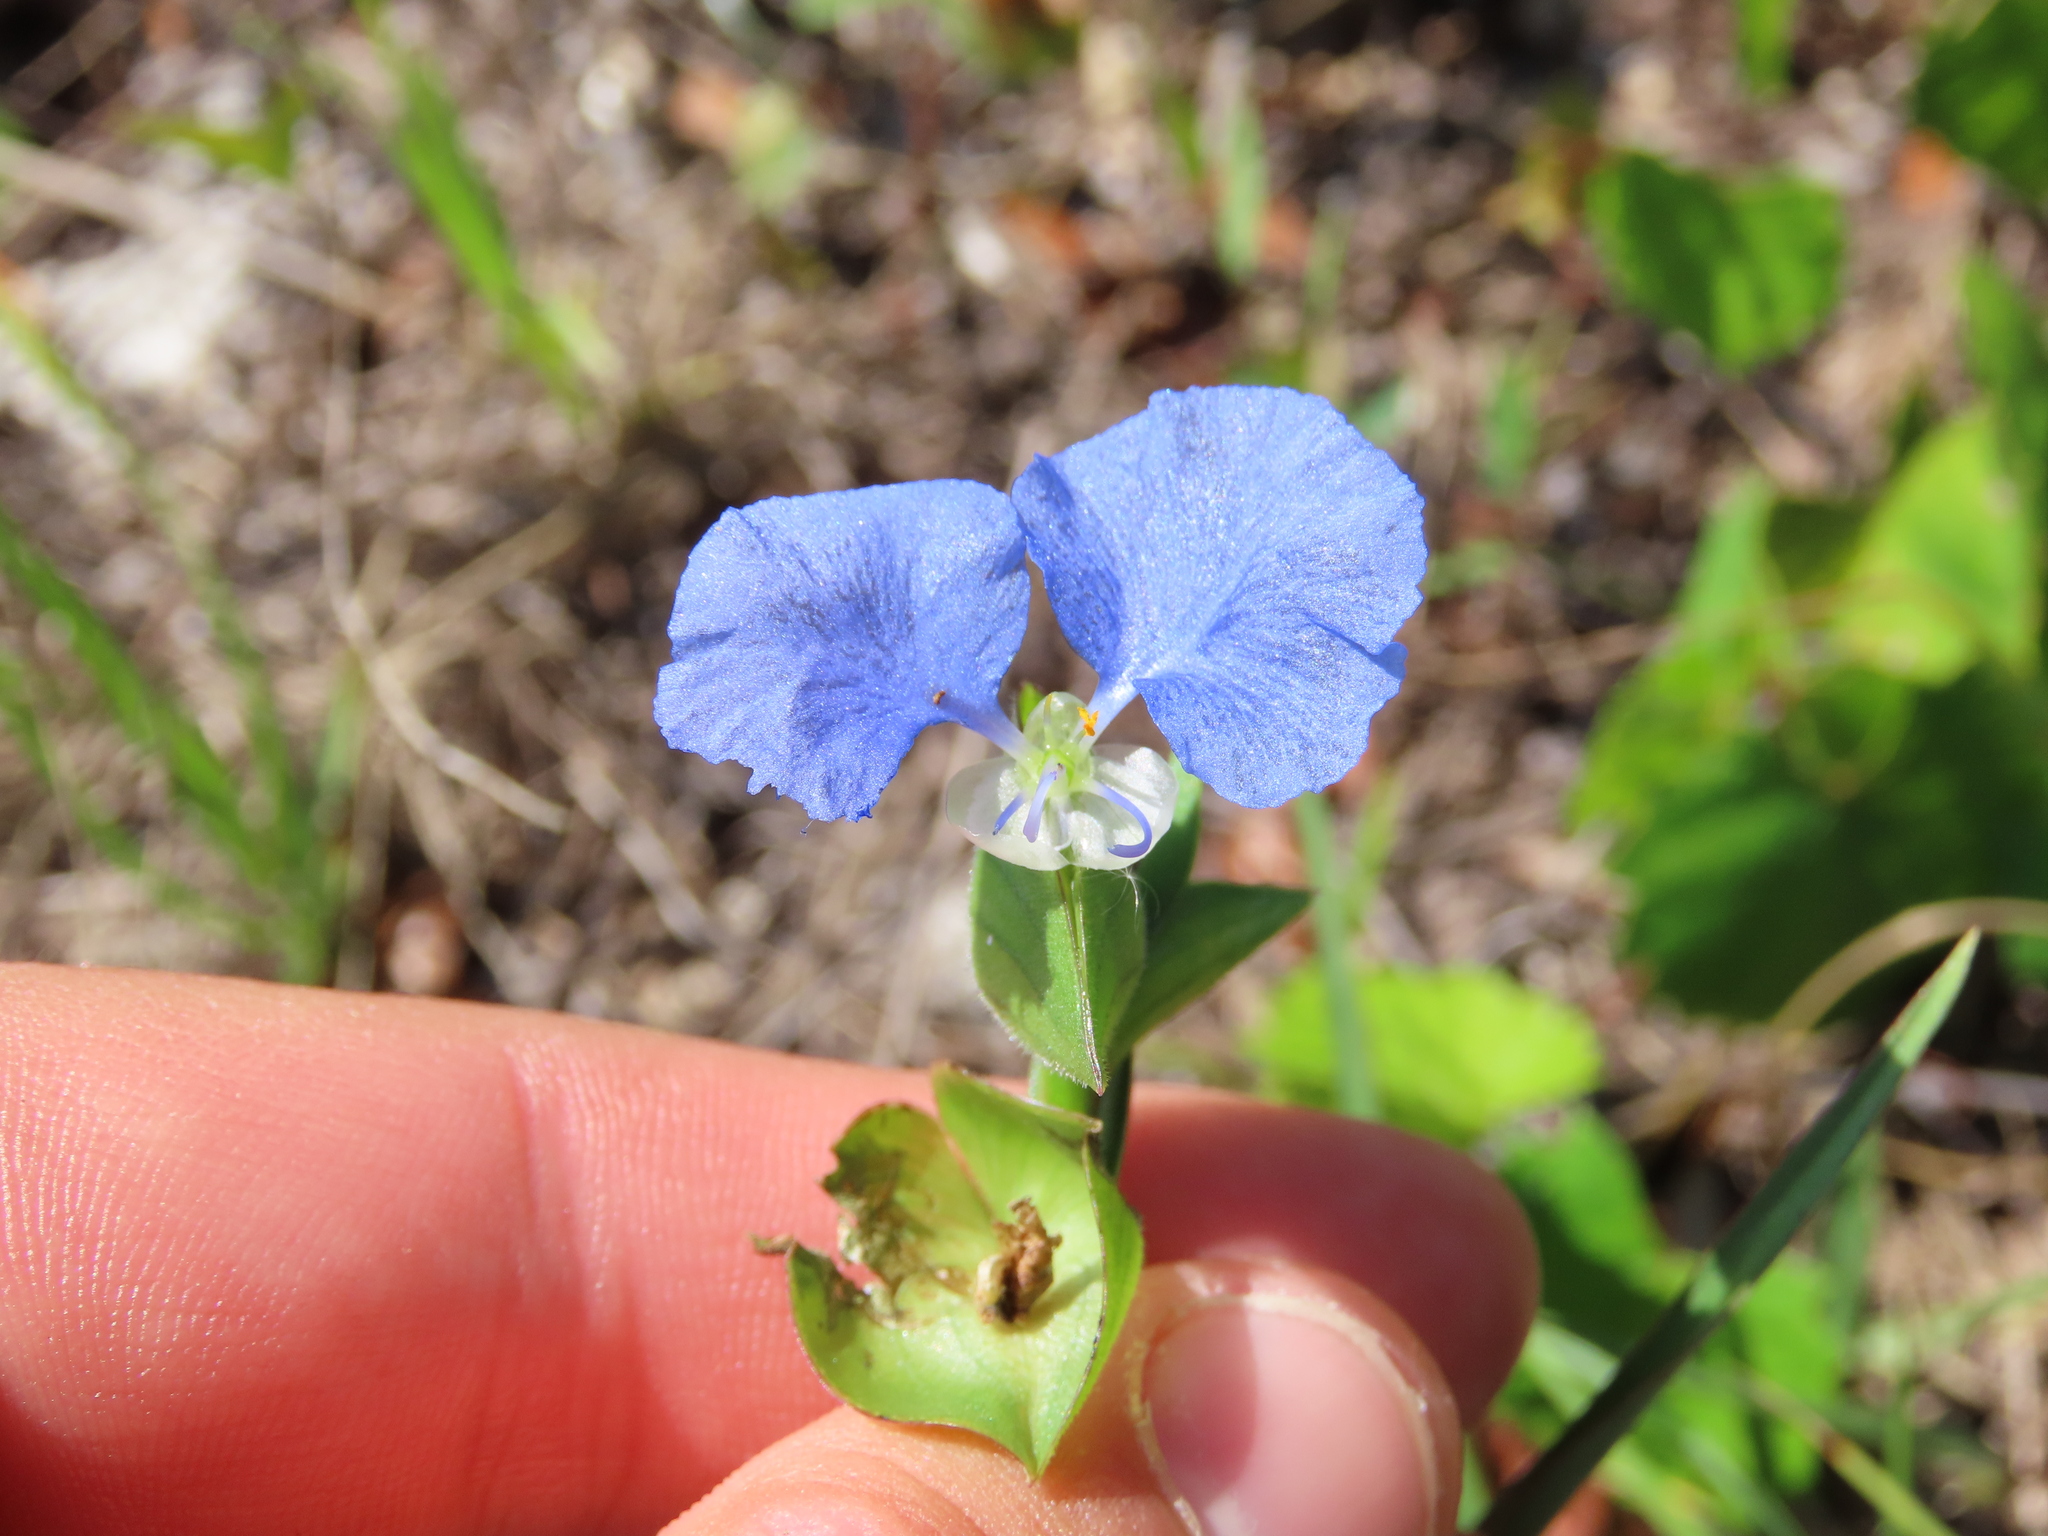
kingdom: Plantae
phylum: Tracheophyta
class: Liliopsida
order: Commelinales
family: Commelinaceae
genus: Commelina
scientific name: Commelina erecta
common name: Blousel blommetjie
